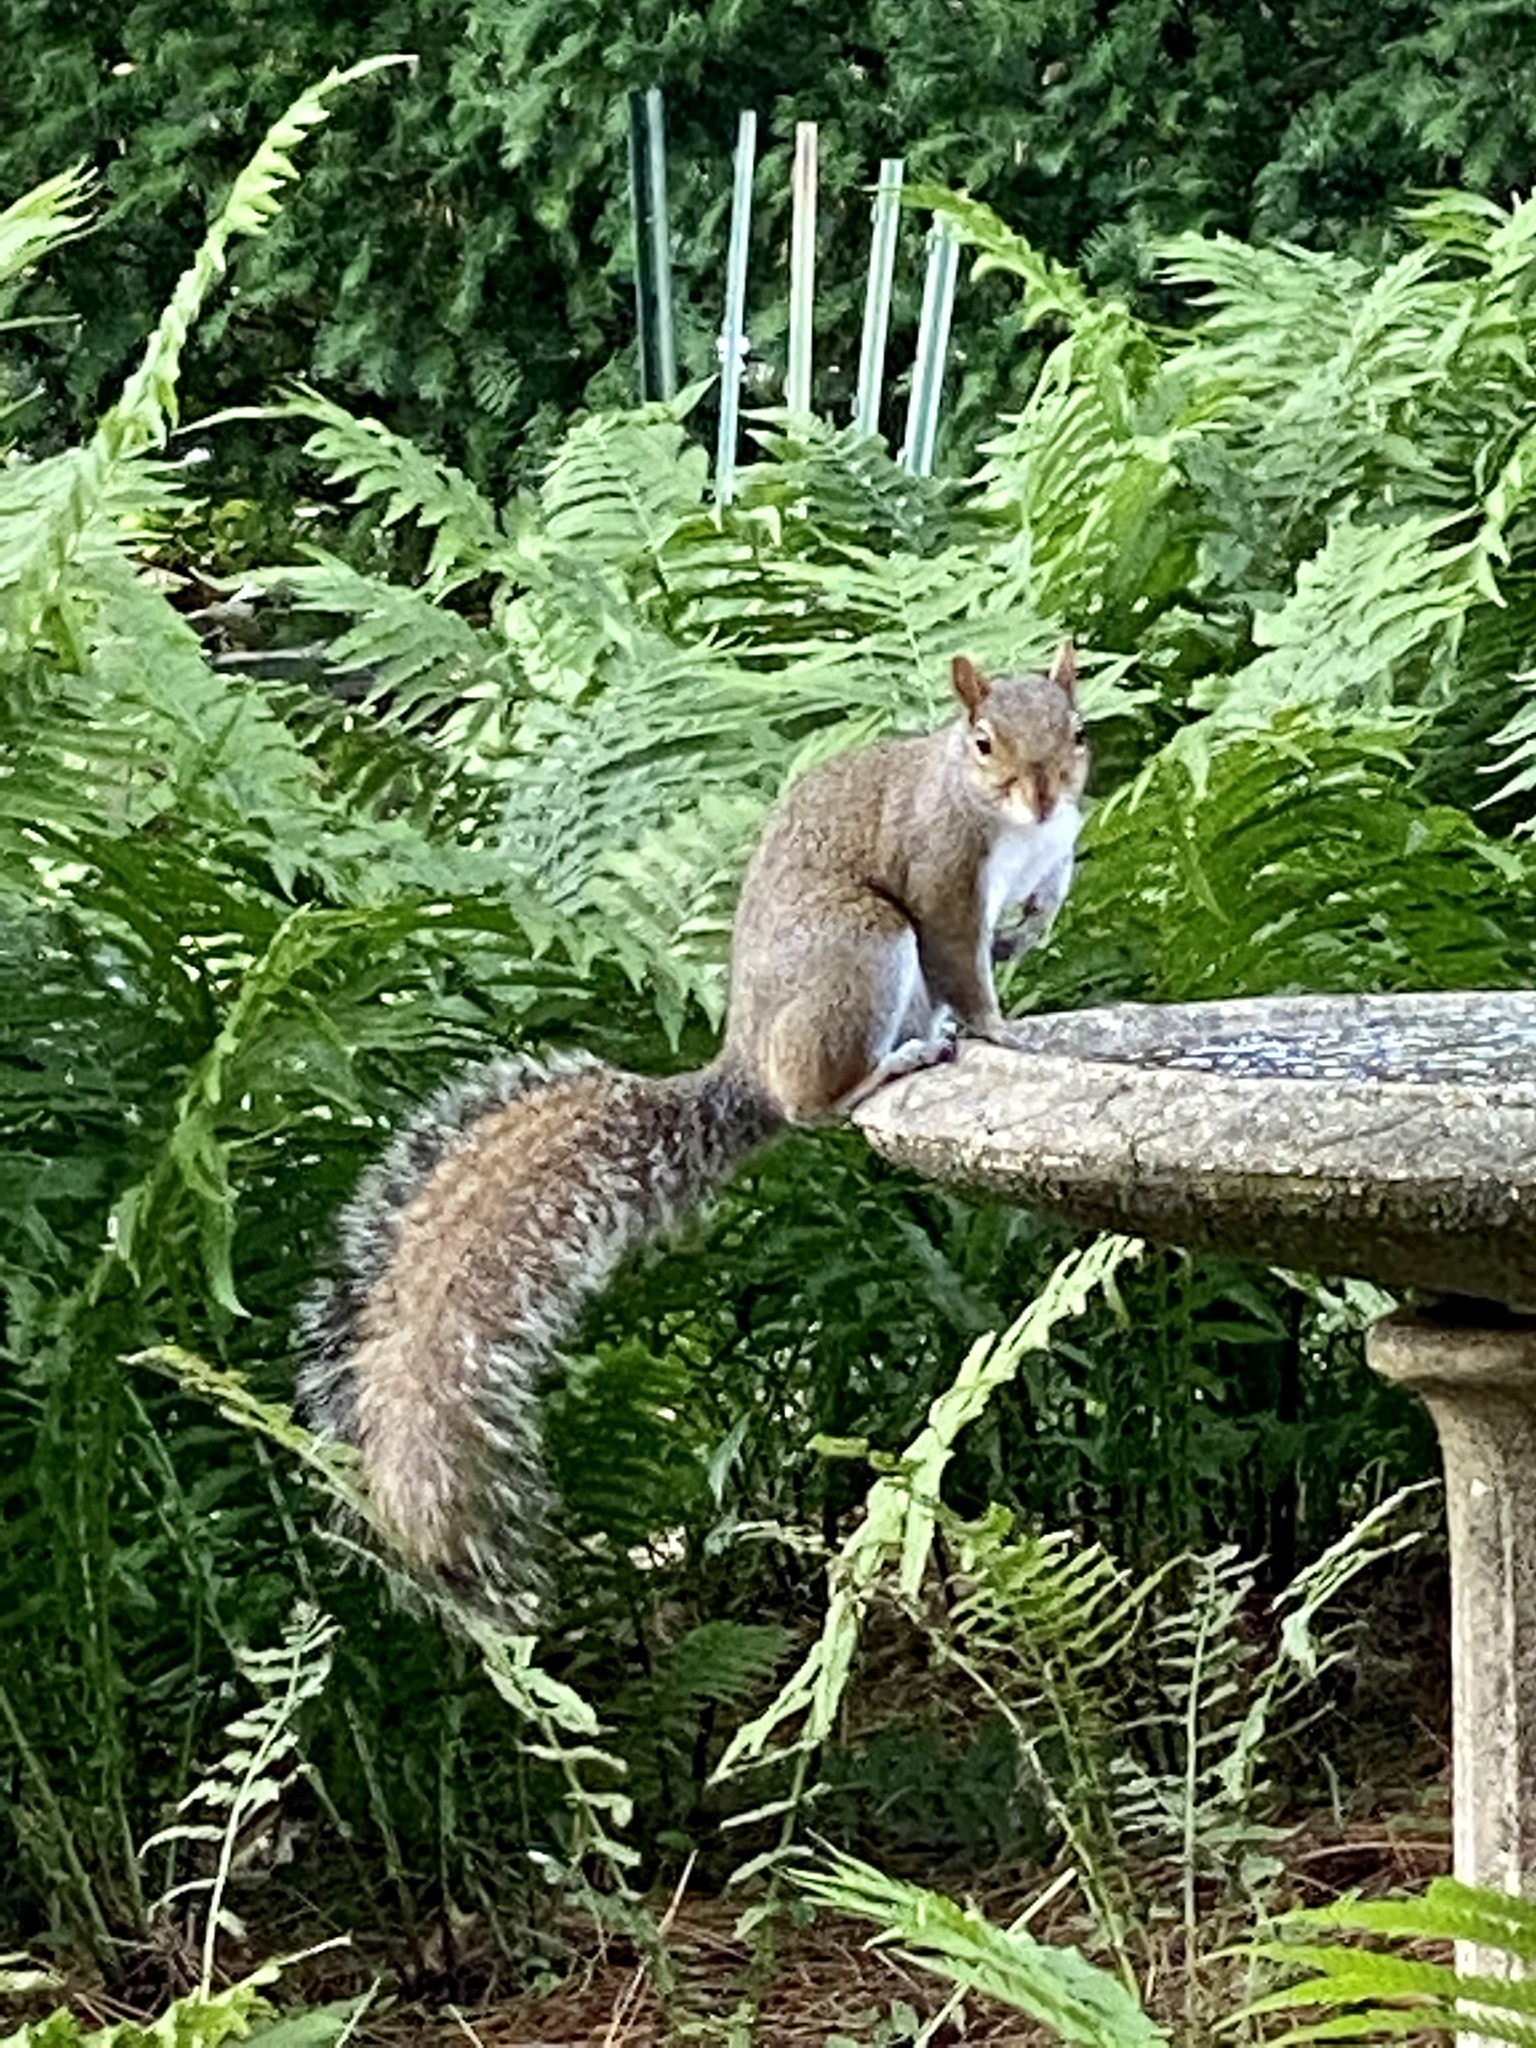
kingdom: Animalia
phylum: Chordata
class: Mammalia
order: Rodentia
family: Sciuridae
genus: Sciurus
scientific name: Sciurus carolinensis
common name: Eastern gray squirrel
